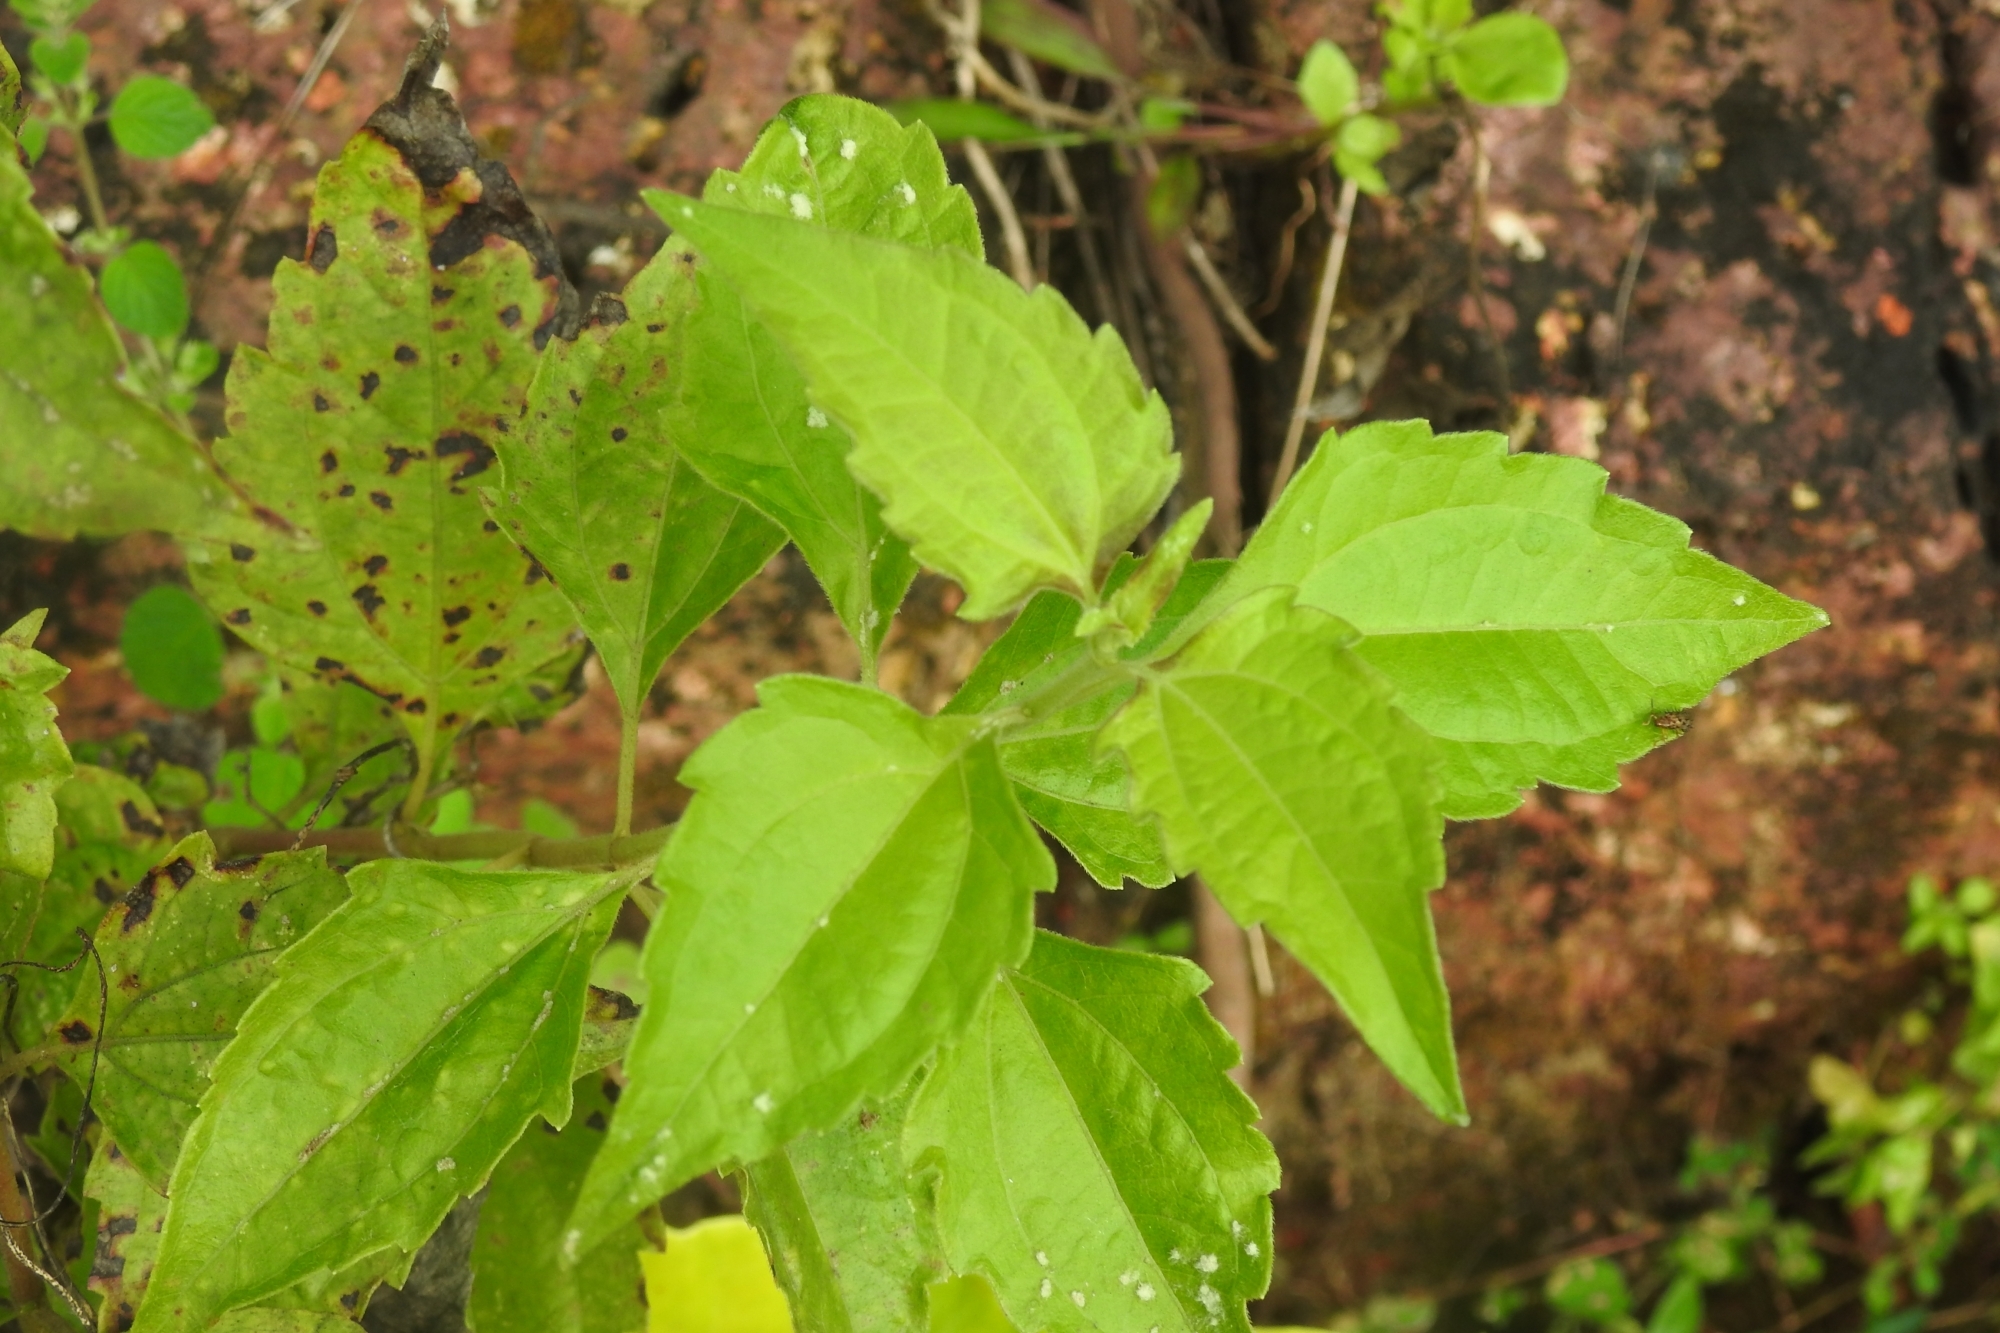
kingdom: Plantae
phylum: Tracheophyta
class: Magnoliopsida
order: Asterales
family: Asteraceae
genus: Chromolaena
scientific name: Chromolaena odorata
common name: Siamweed
